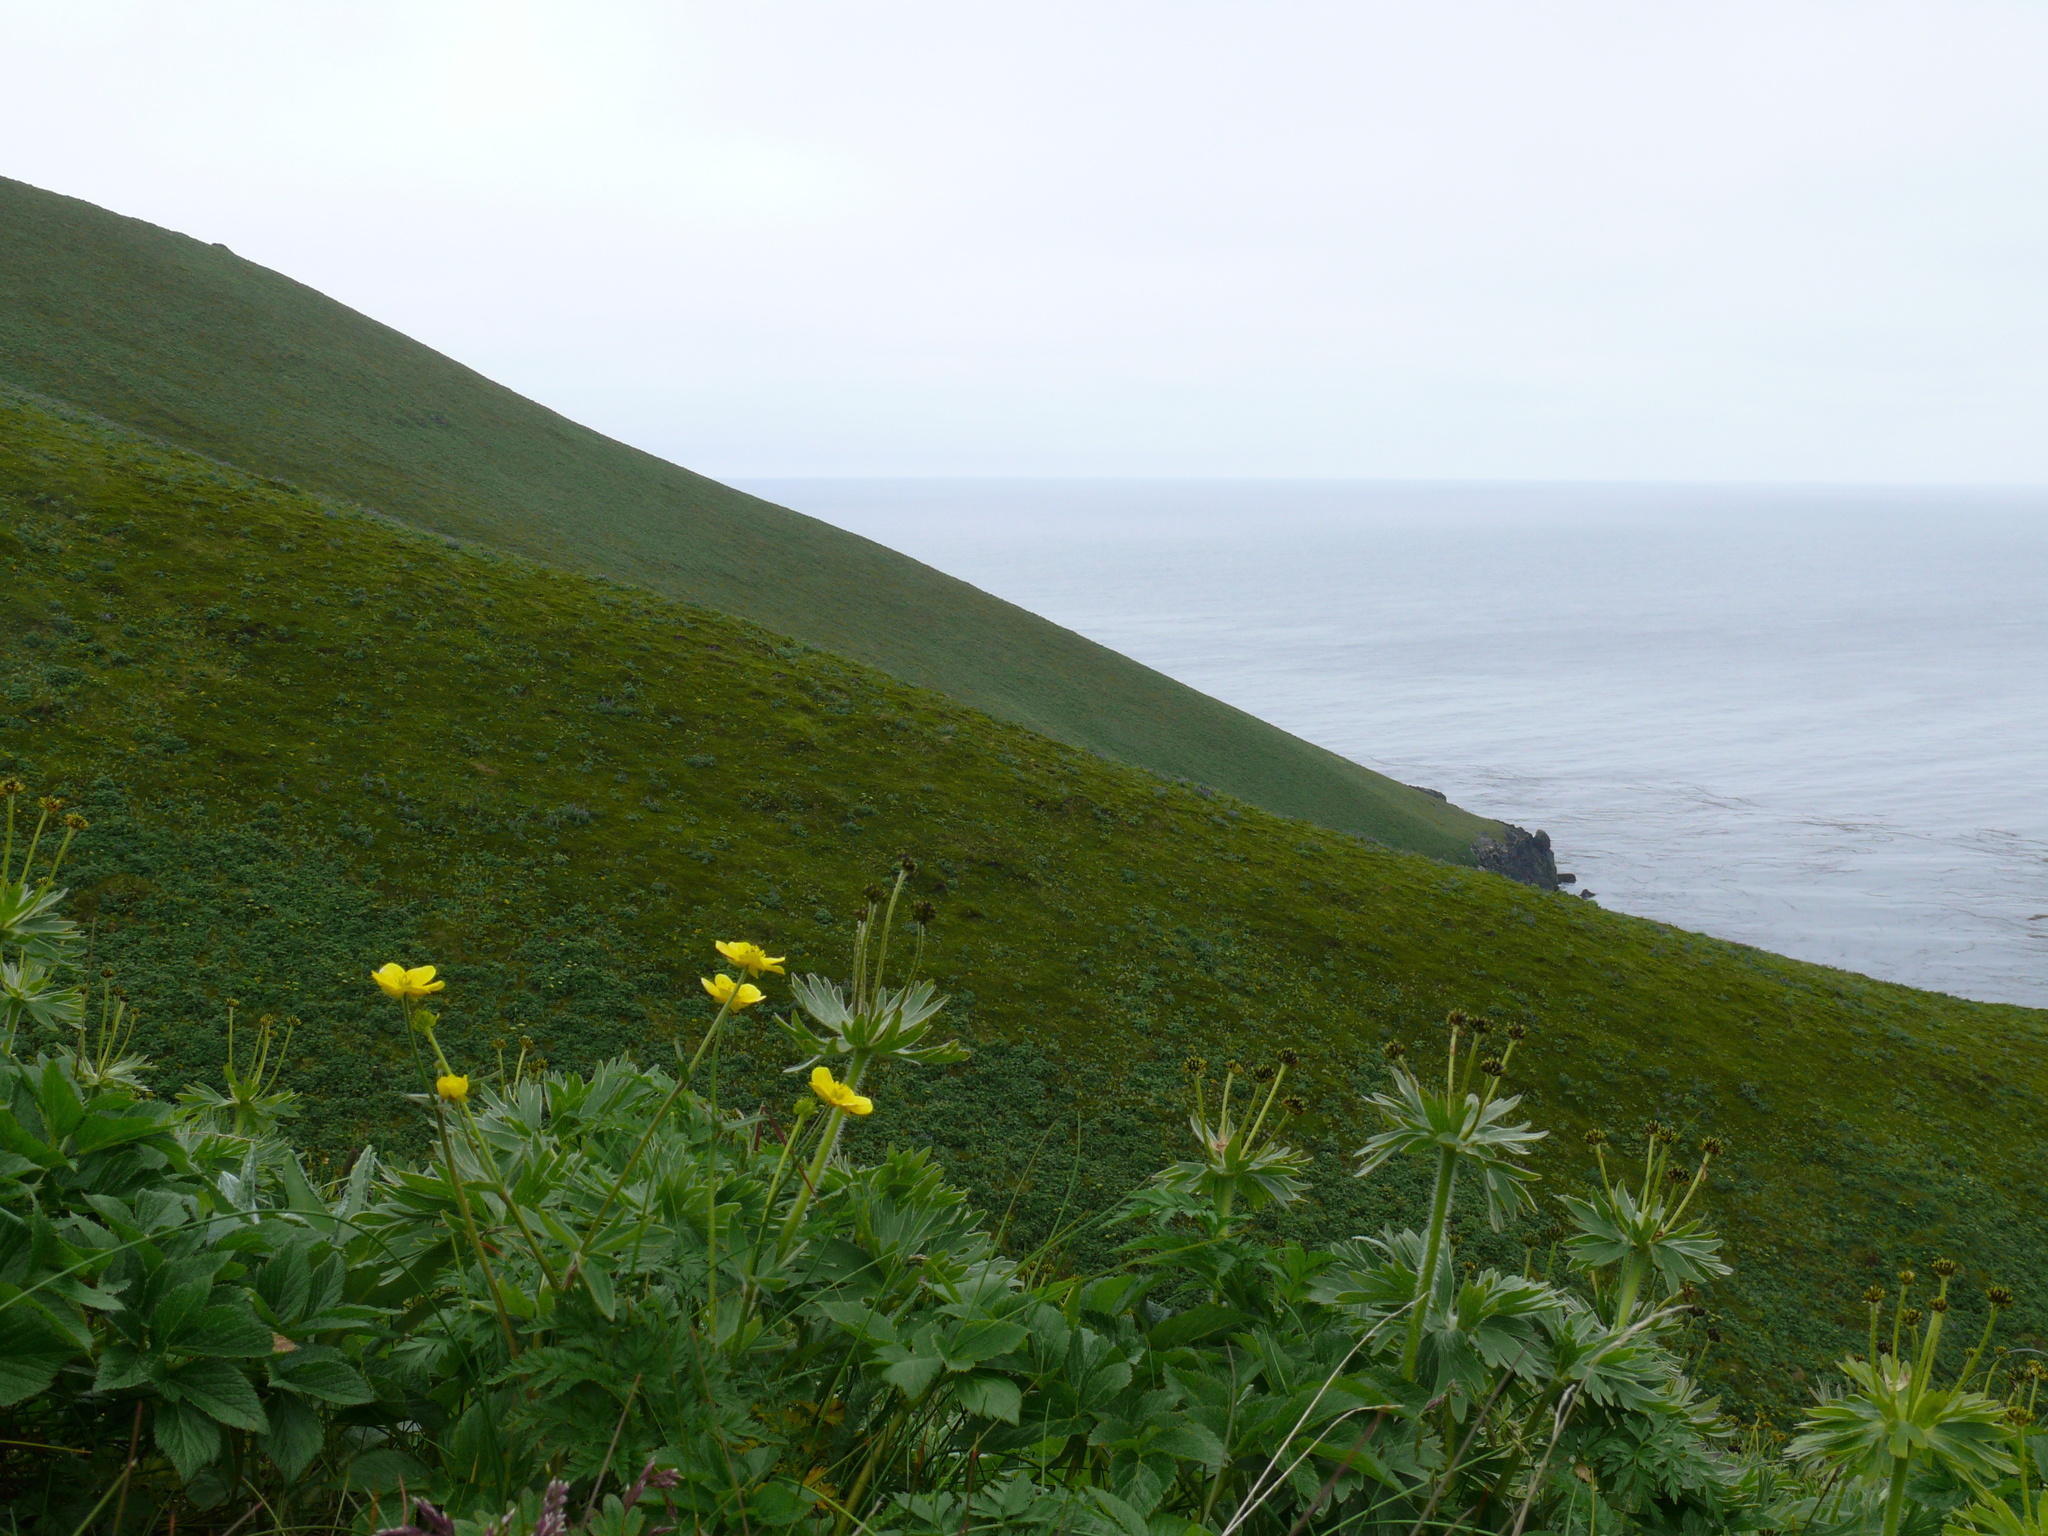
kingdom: Plantae
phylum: Tracheophyta
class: Magnoliopsida
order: Ranunculales
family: Ranunculaceae
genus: Anemonastrum
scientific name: Anemonastrum narcissiflorum
